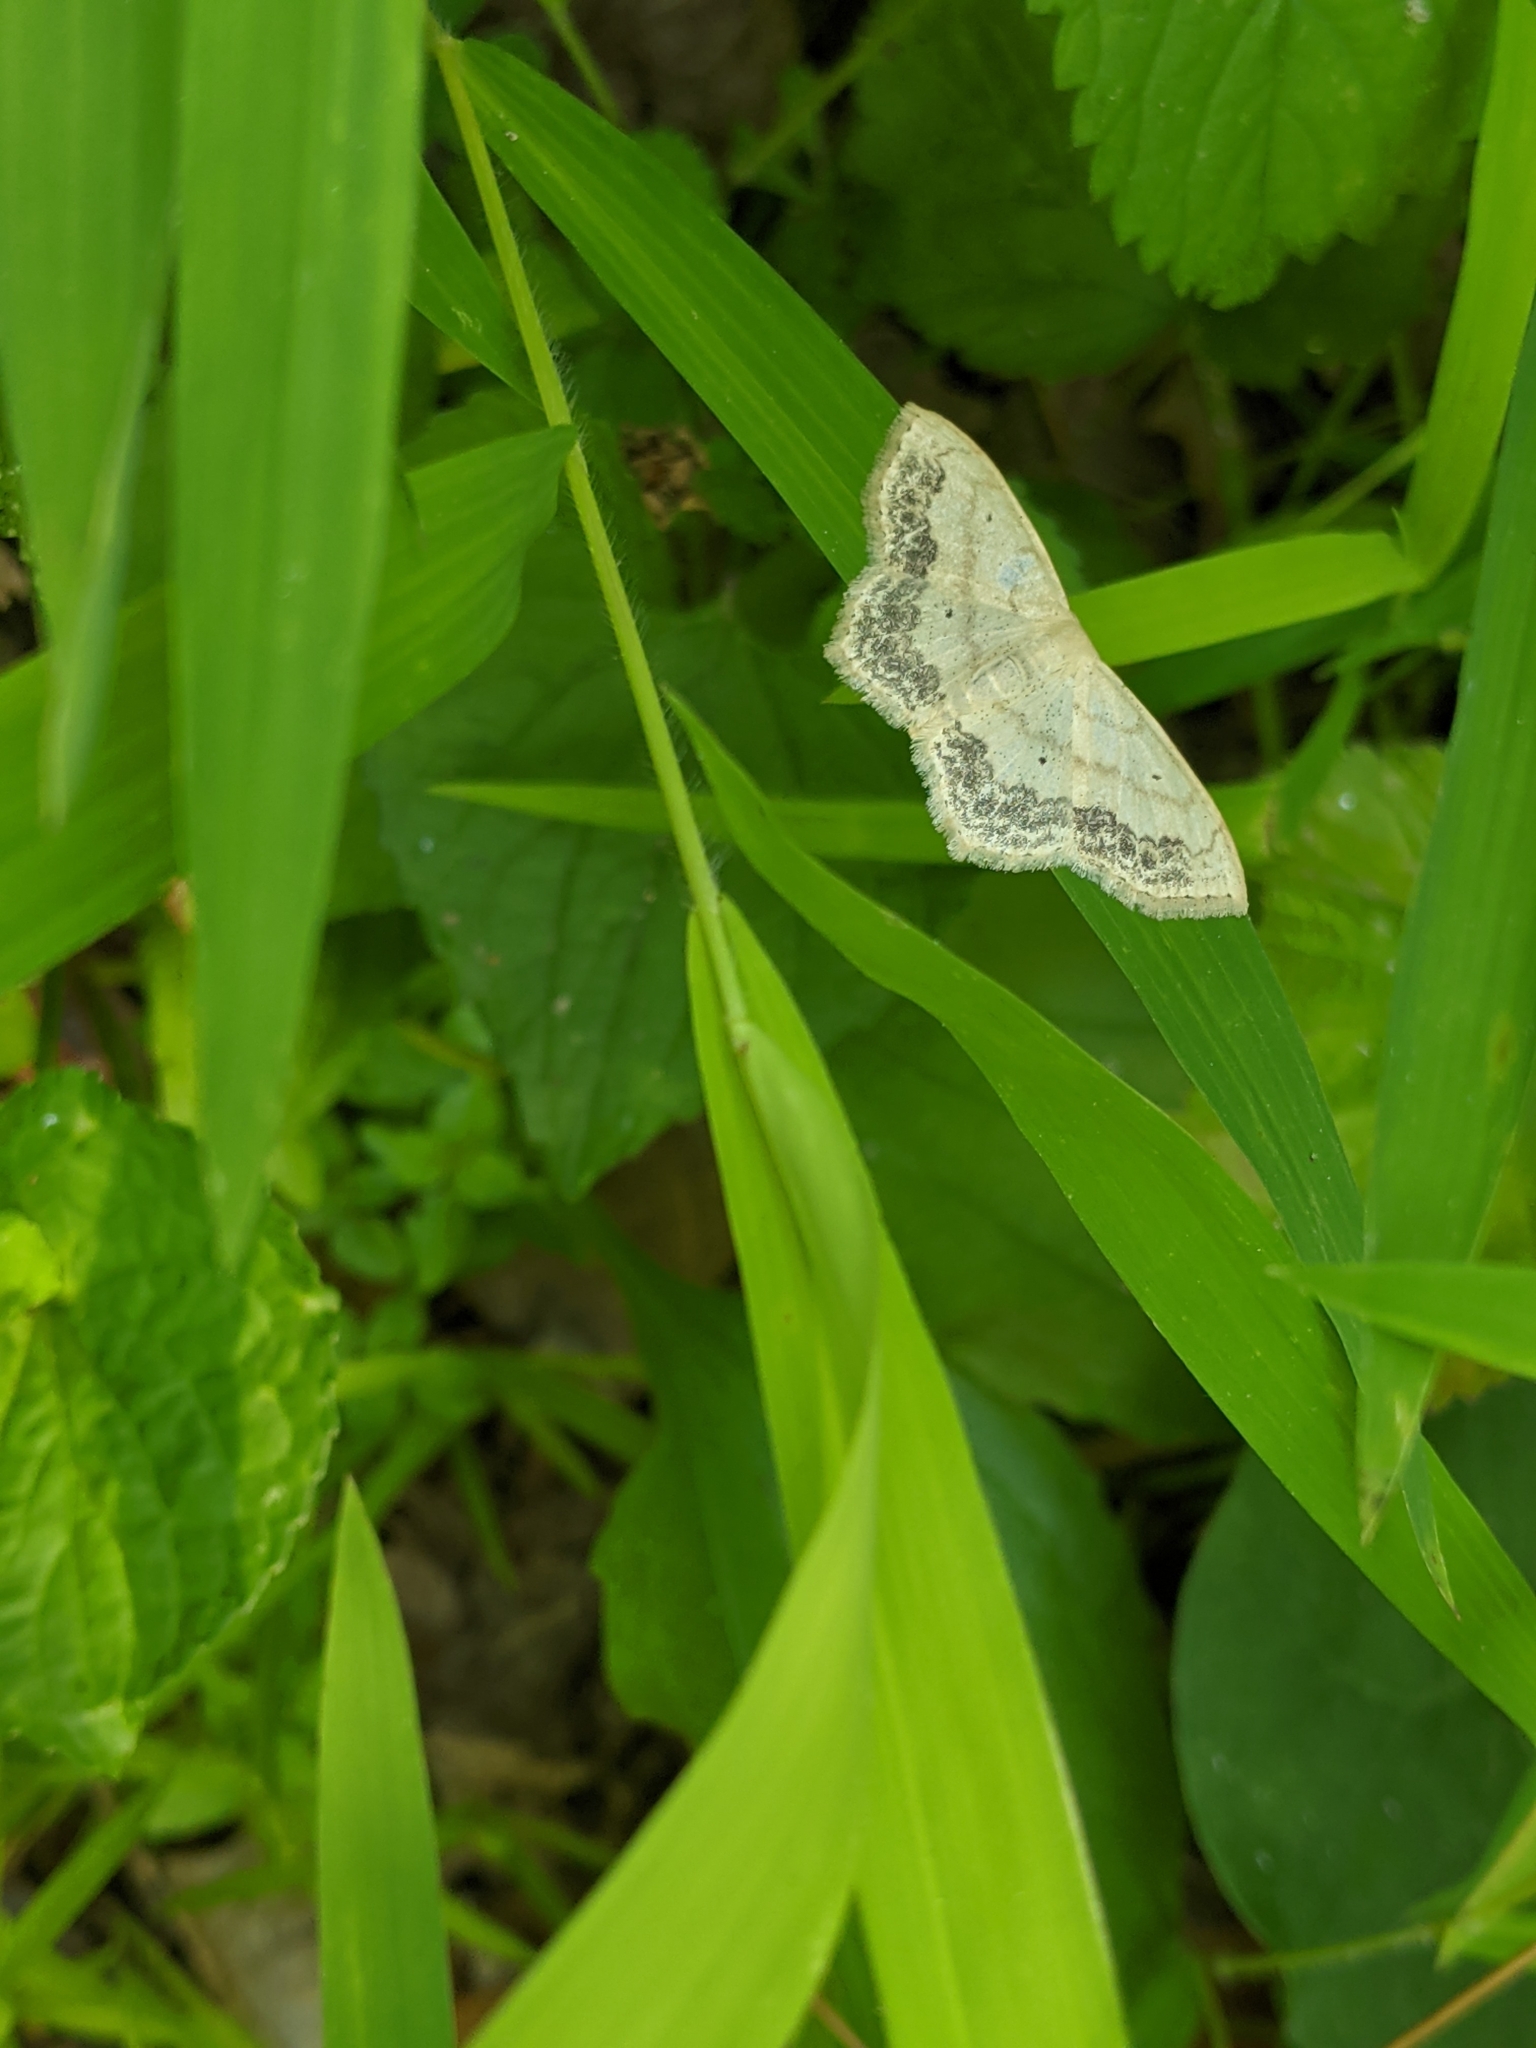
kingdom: Animalia
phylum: Arthropoda
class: Insecta
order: Lepidoptera
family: Geometridae
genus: Scopula
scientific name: Scopula limboundata
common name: Large lace border
